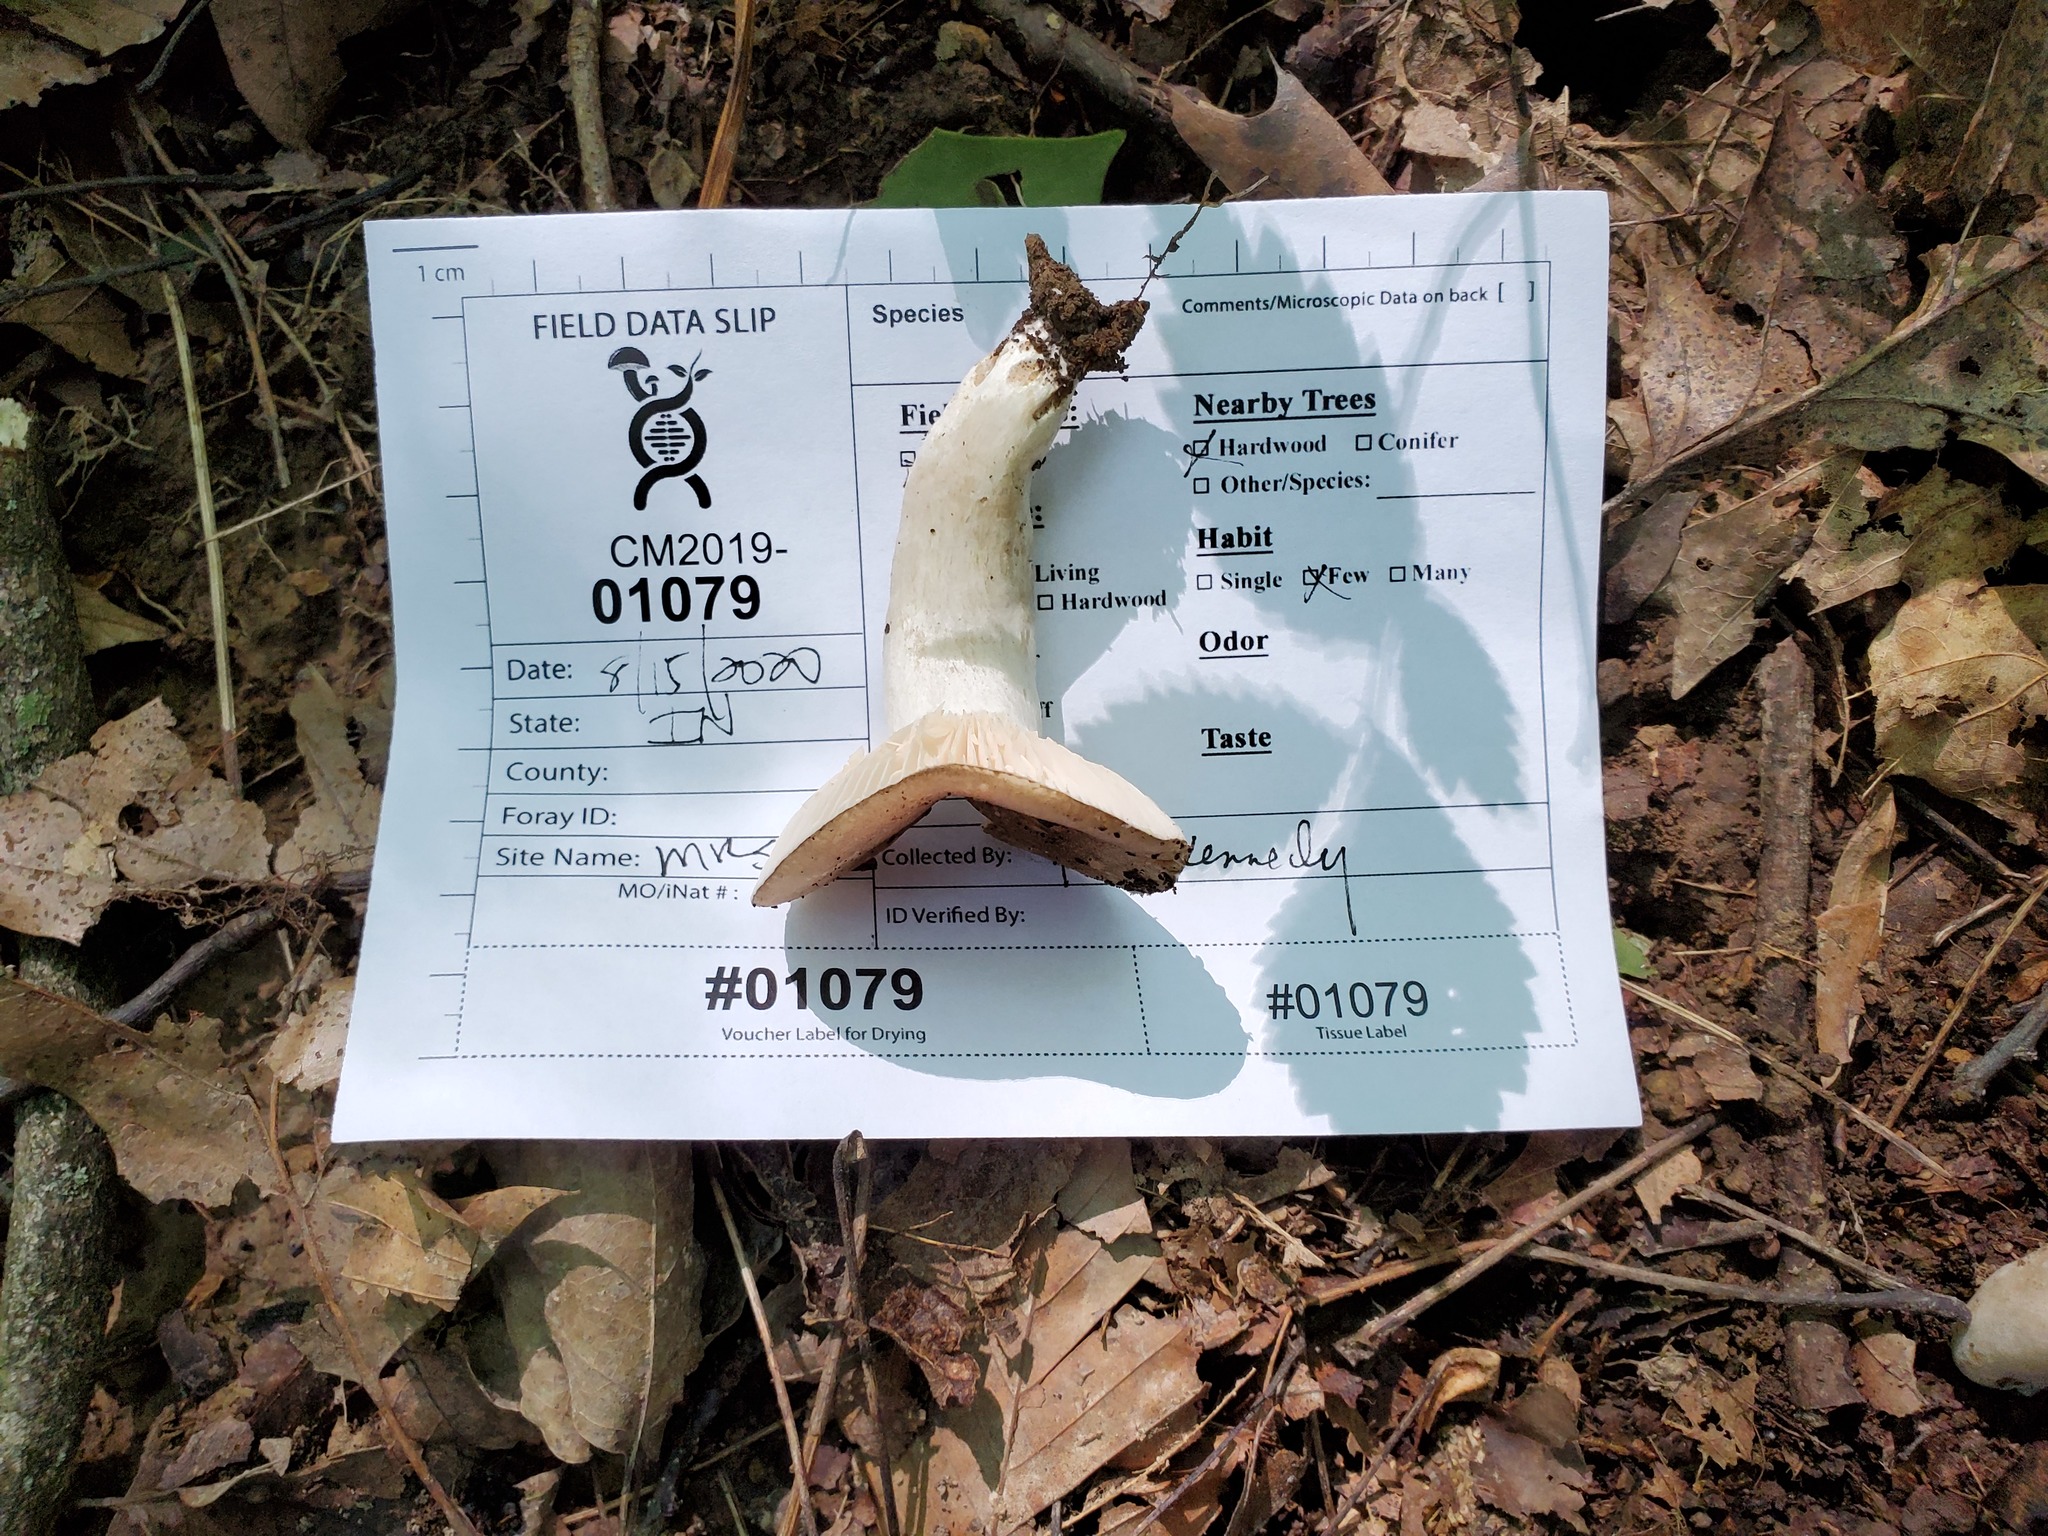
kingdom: Fungi
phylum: Basidiomycota
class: Agaricomycetes
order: Russulales
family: Russulaceae
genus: Russula
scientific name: Russula adusta
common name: Winecork brittlegill
